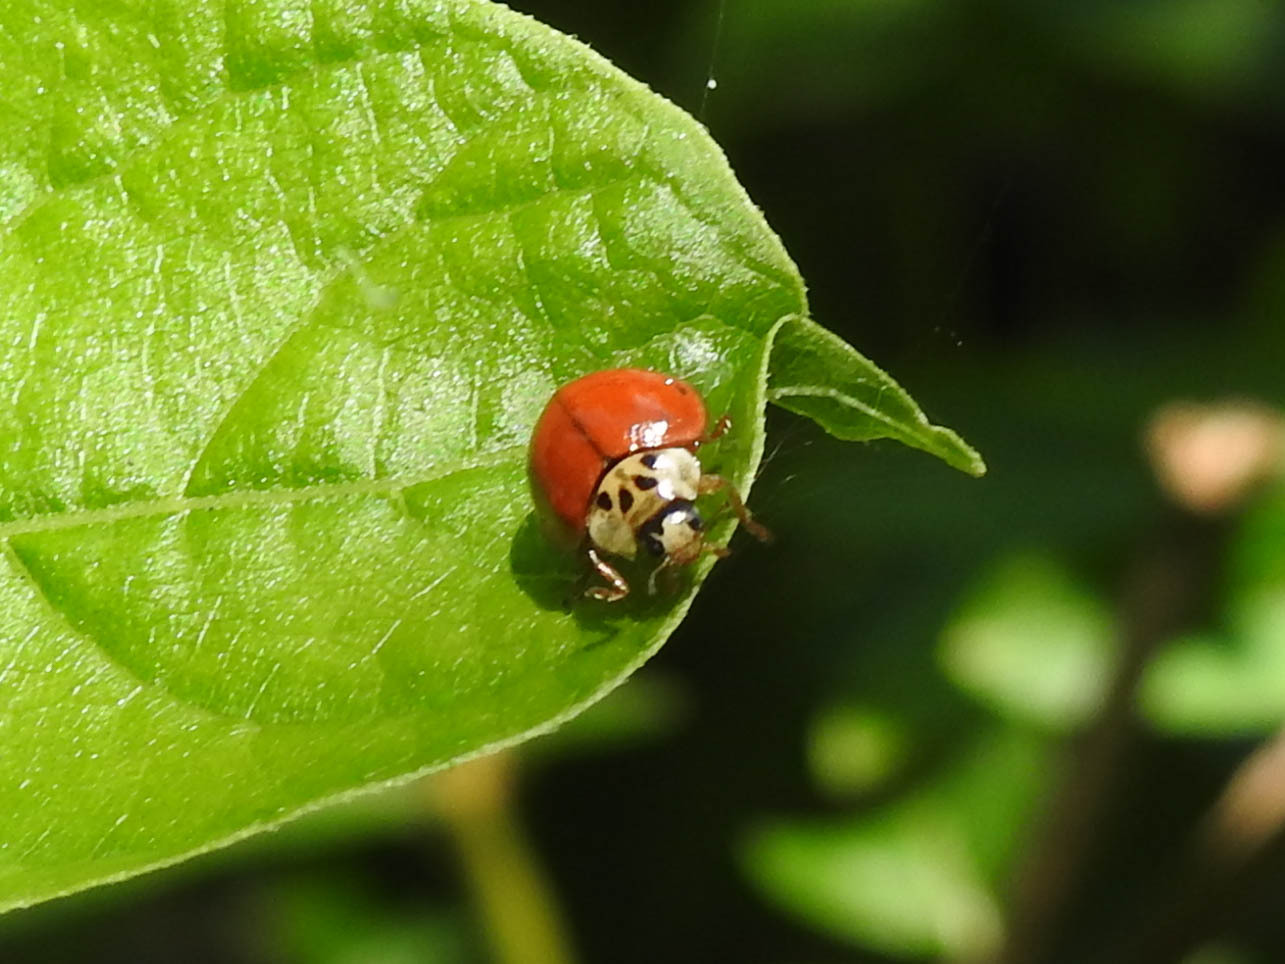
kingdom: Animalia
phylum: Arthropoda
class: Insecta
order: Coleoptera
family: Coccinellidae
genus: Harmonia
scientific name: Harmonia axyridis
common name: Harlequin ladybird
